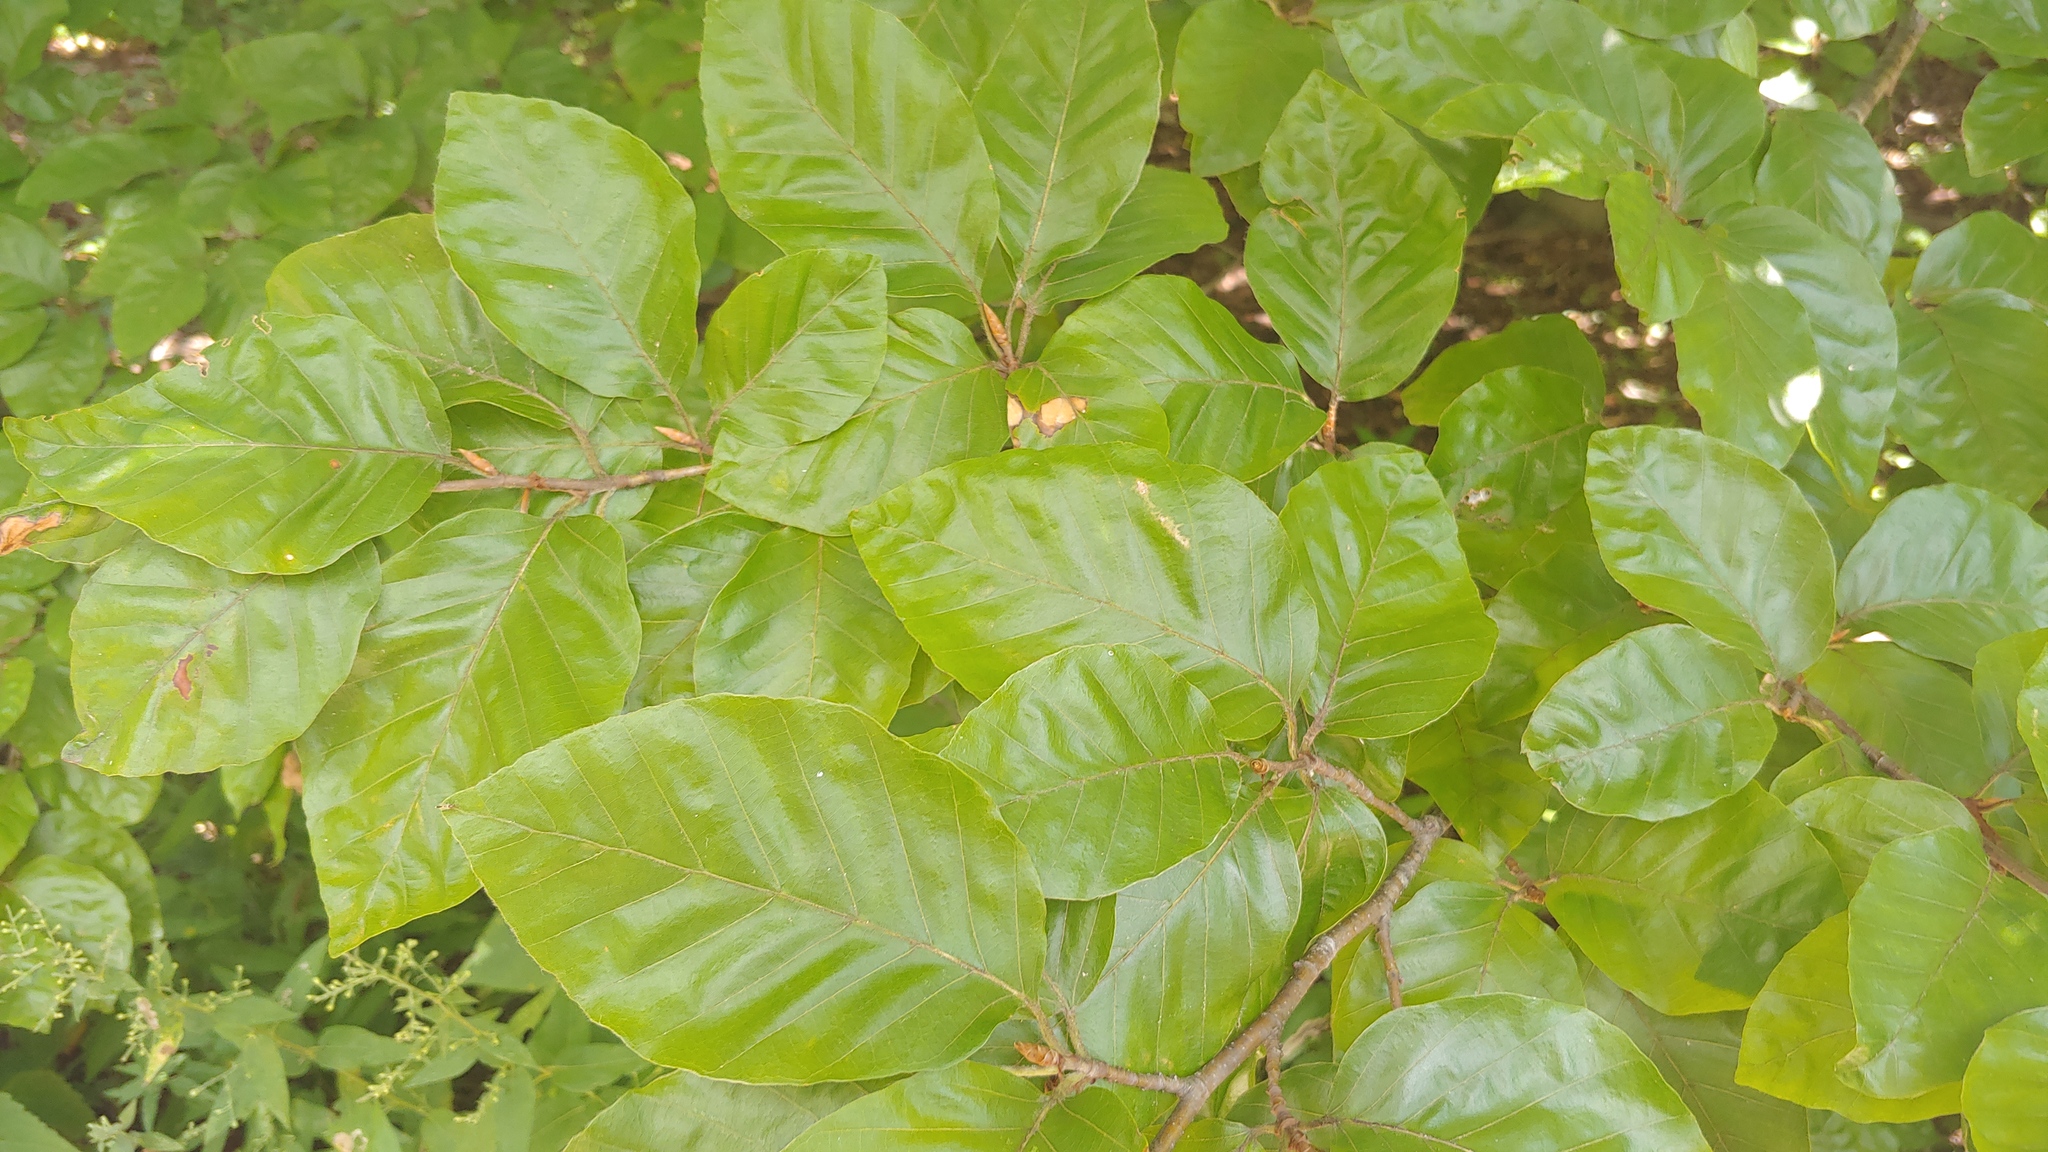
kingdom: Plantae
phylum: Tracheophyta
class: Magnoliopsida
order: Fagales
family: Fagaceae
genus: Fagus
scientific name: Fagus sylvatica
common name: Beech
